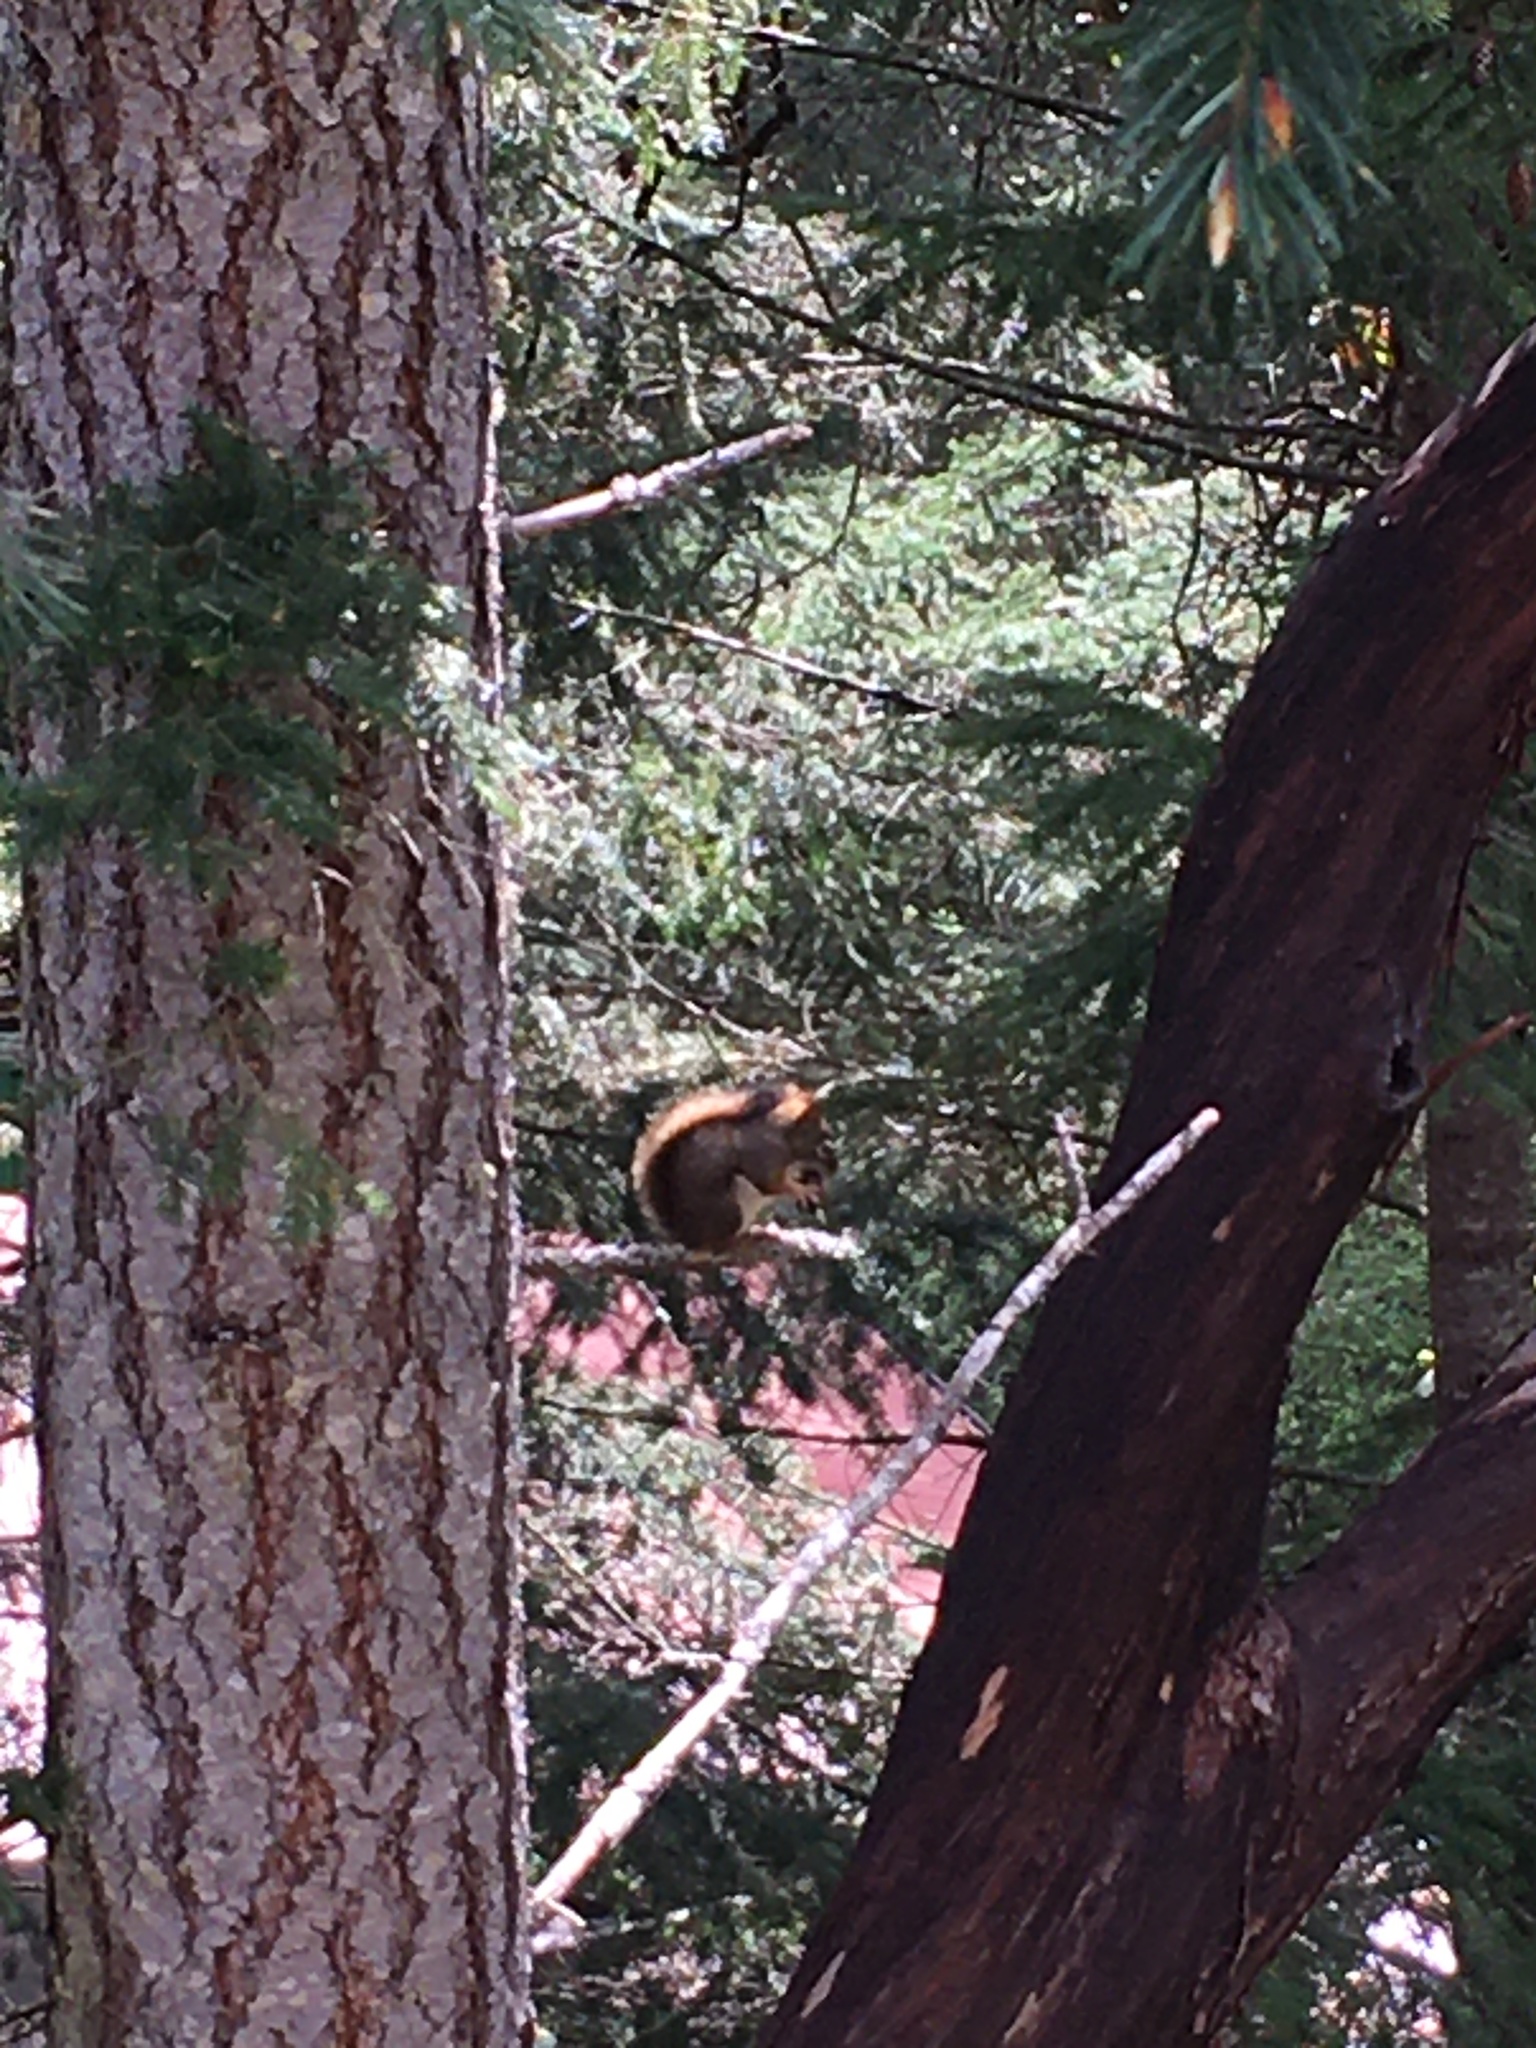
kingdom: Animalia
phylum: Chordata
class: Mammalia
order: Rodentia
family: Sciuridae
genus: Tamiasciurus
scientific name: Tamiasciurus hudsonicus
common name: Red squirrel
